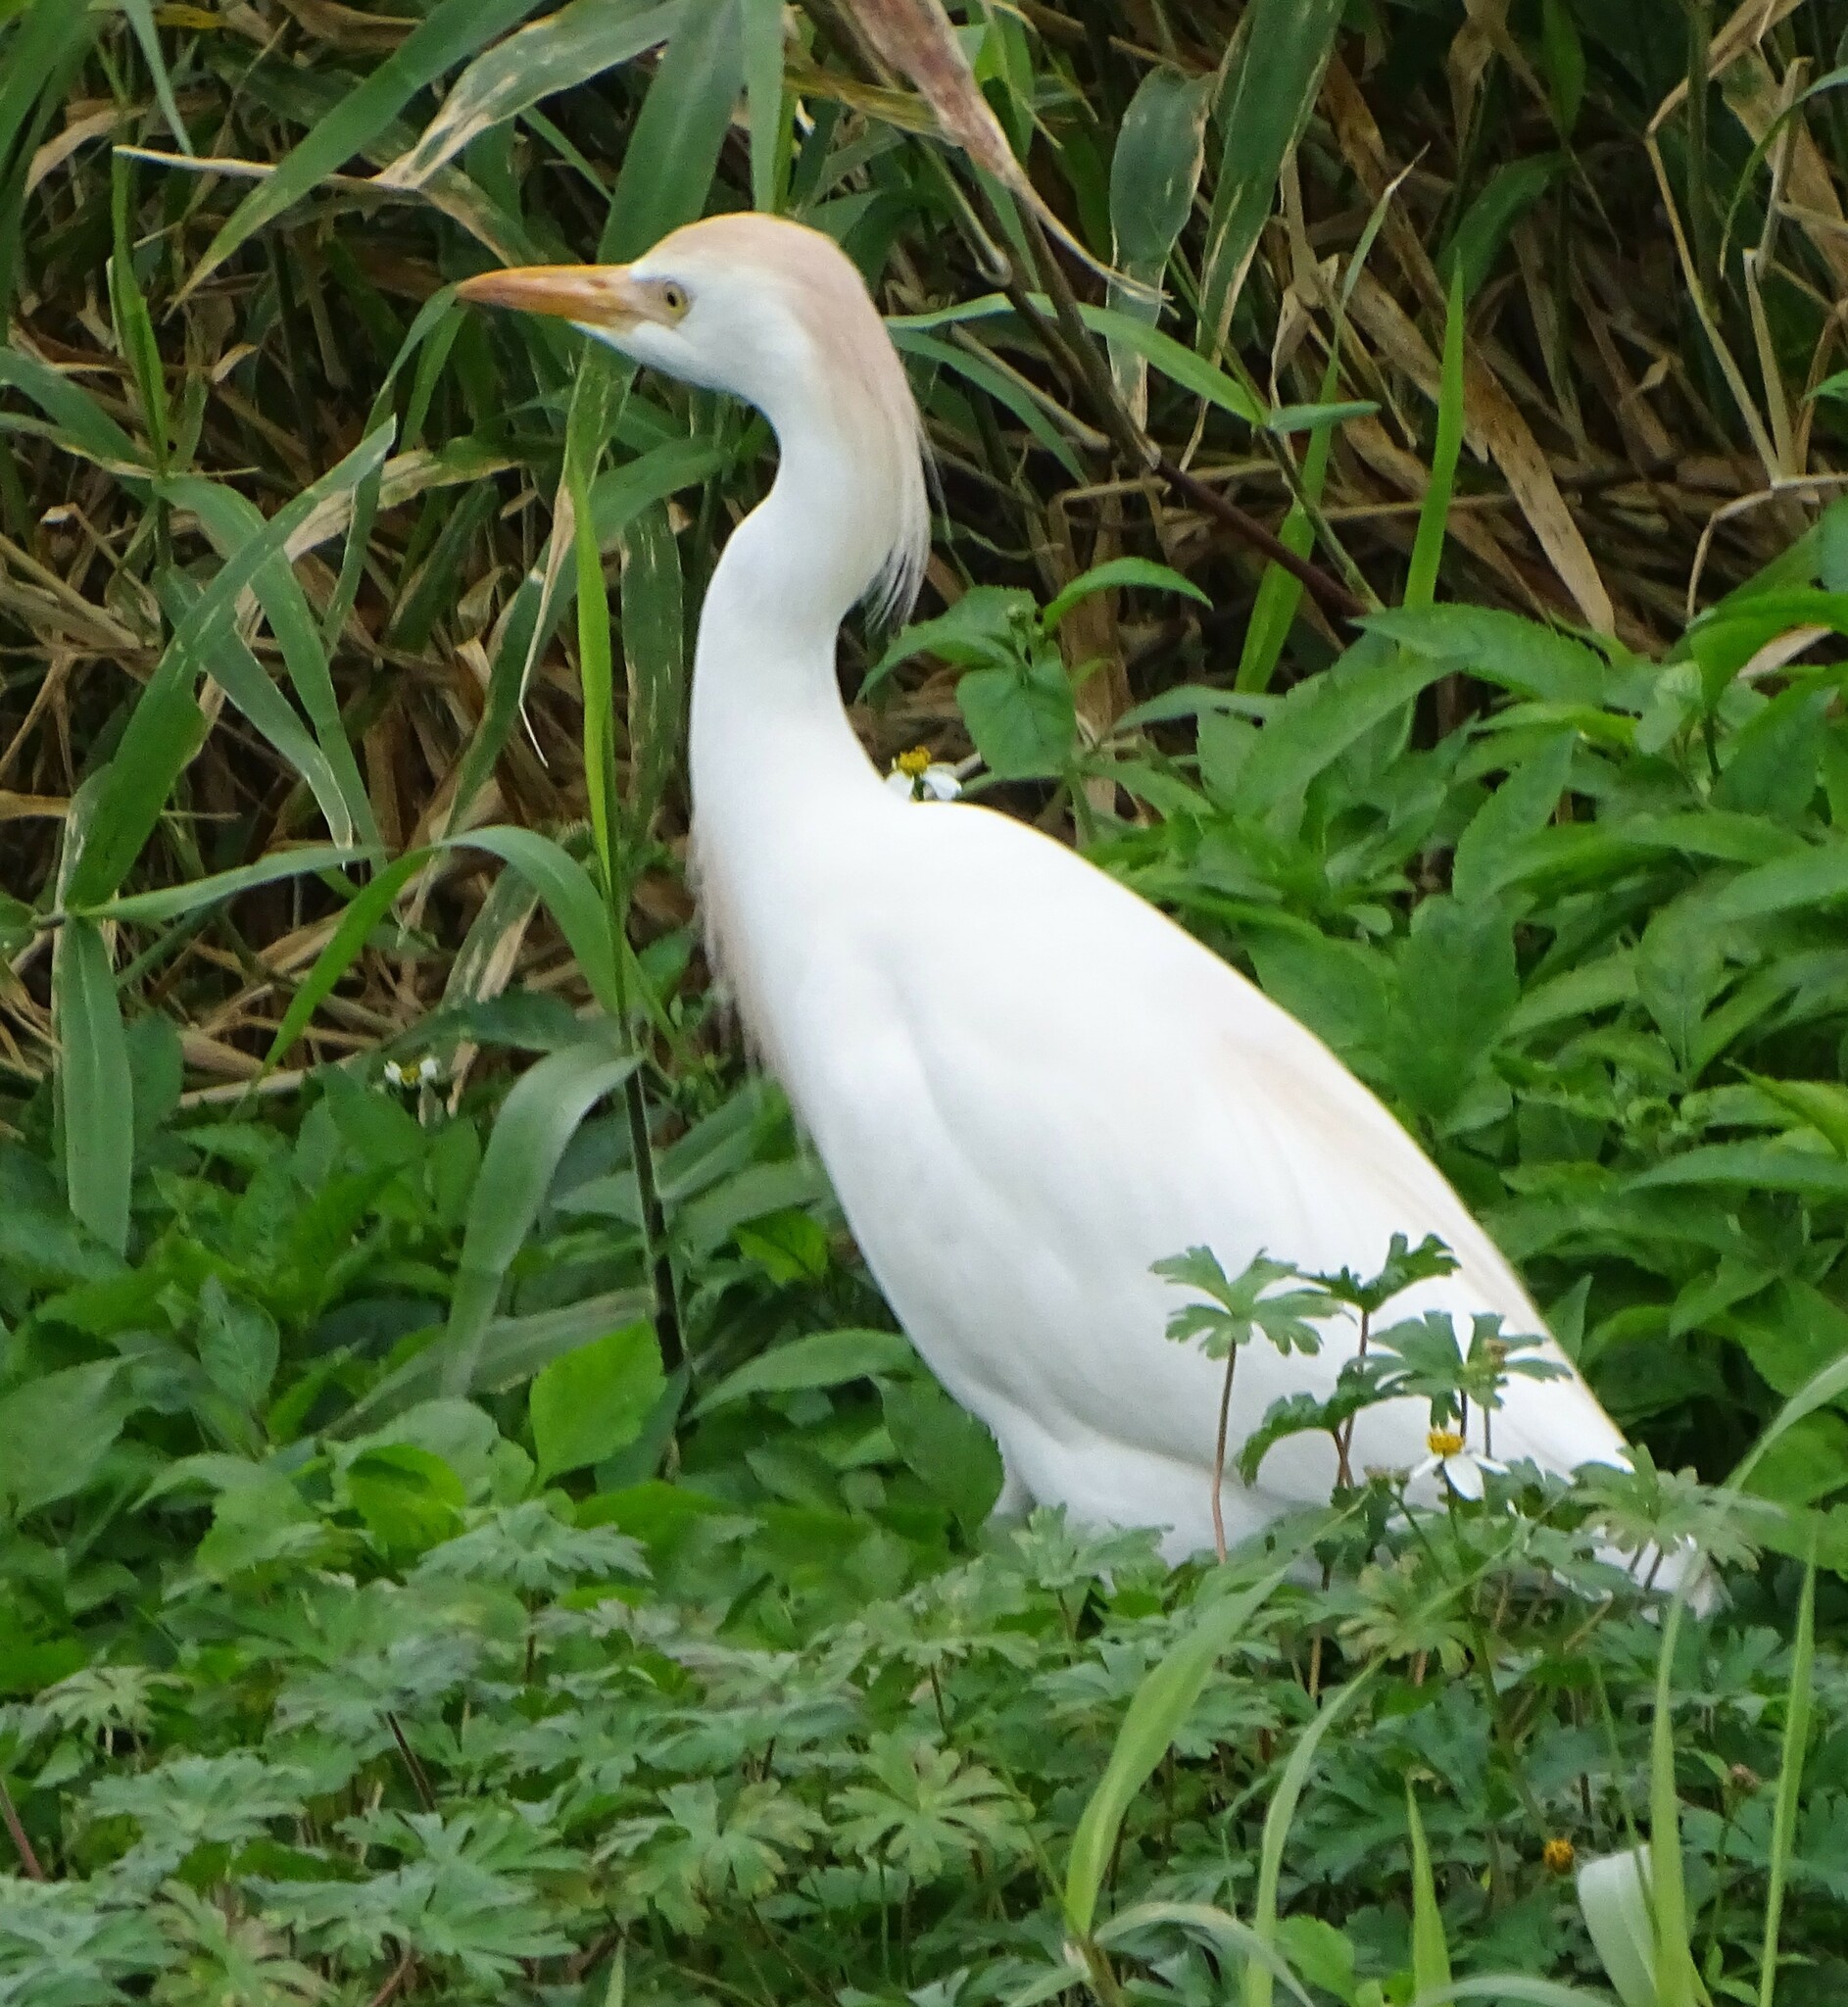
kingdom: Animalia
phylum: Chordata
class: Aves
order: Pelecaniformes
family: Ardeidae
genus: Bubulcus
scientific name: Bubulcus ibis
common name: Cattle egret
